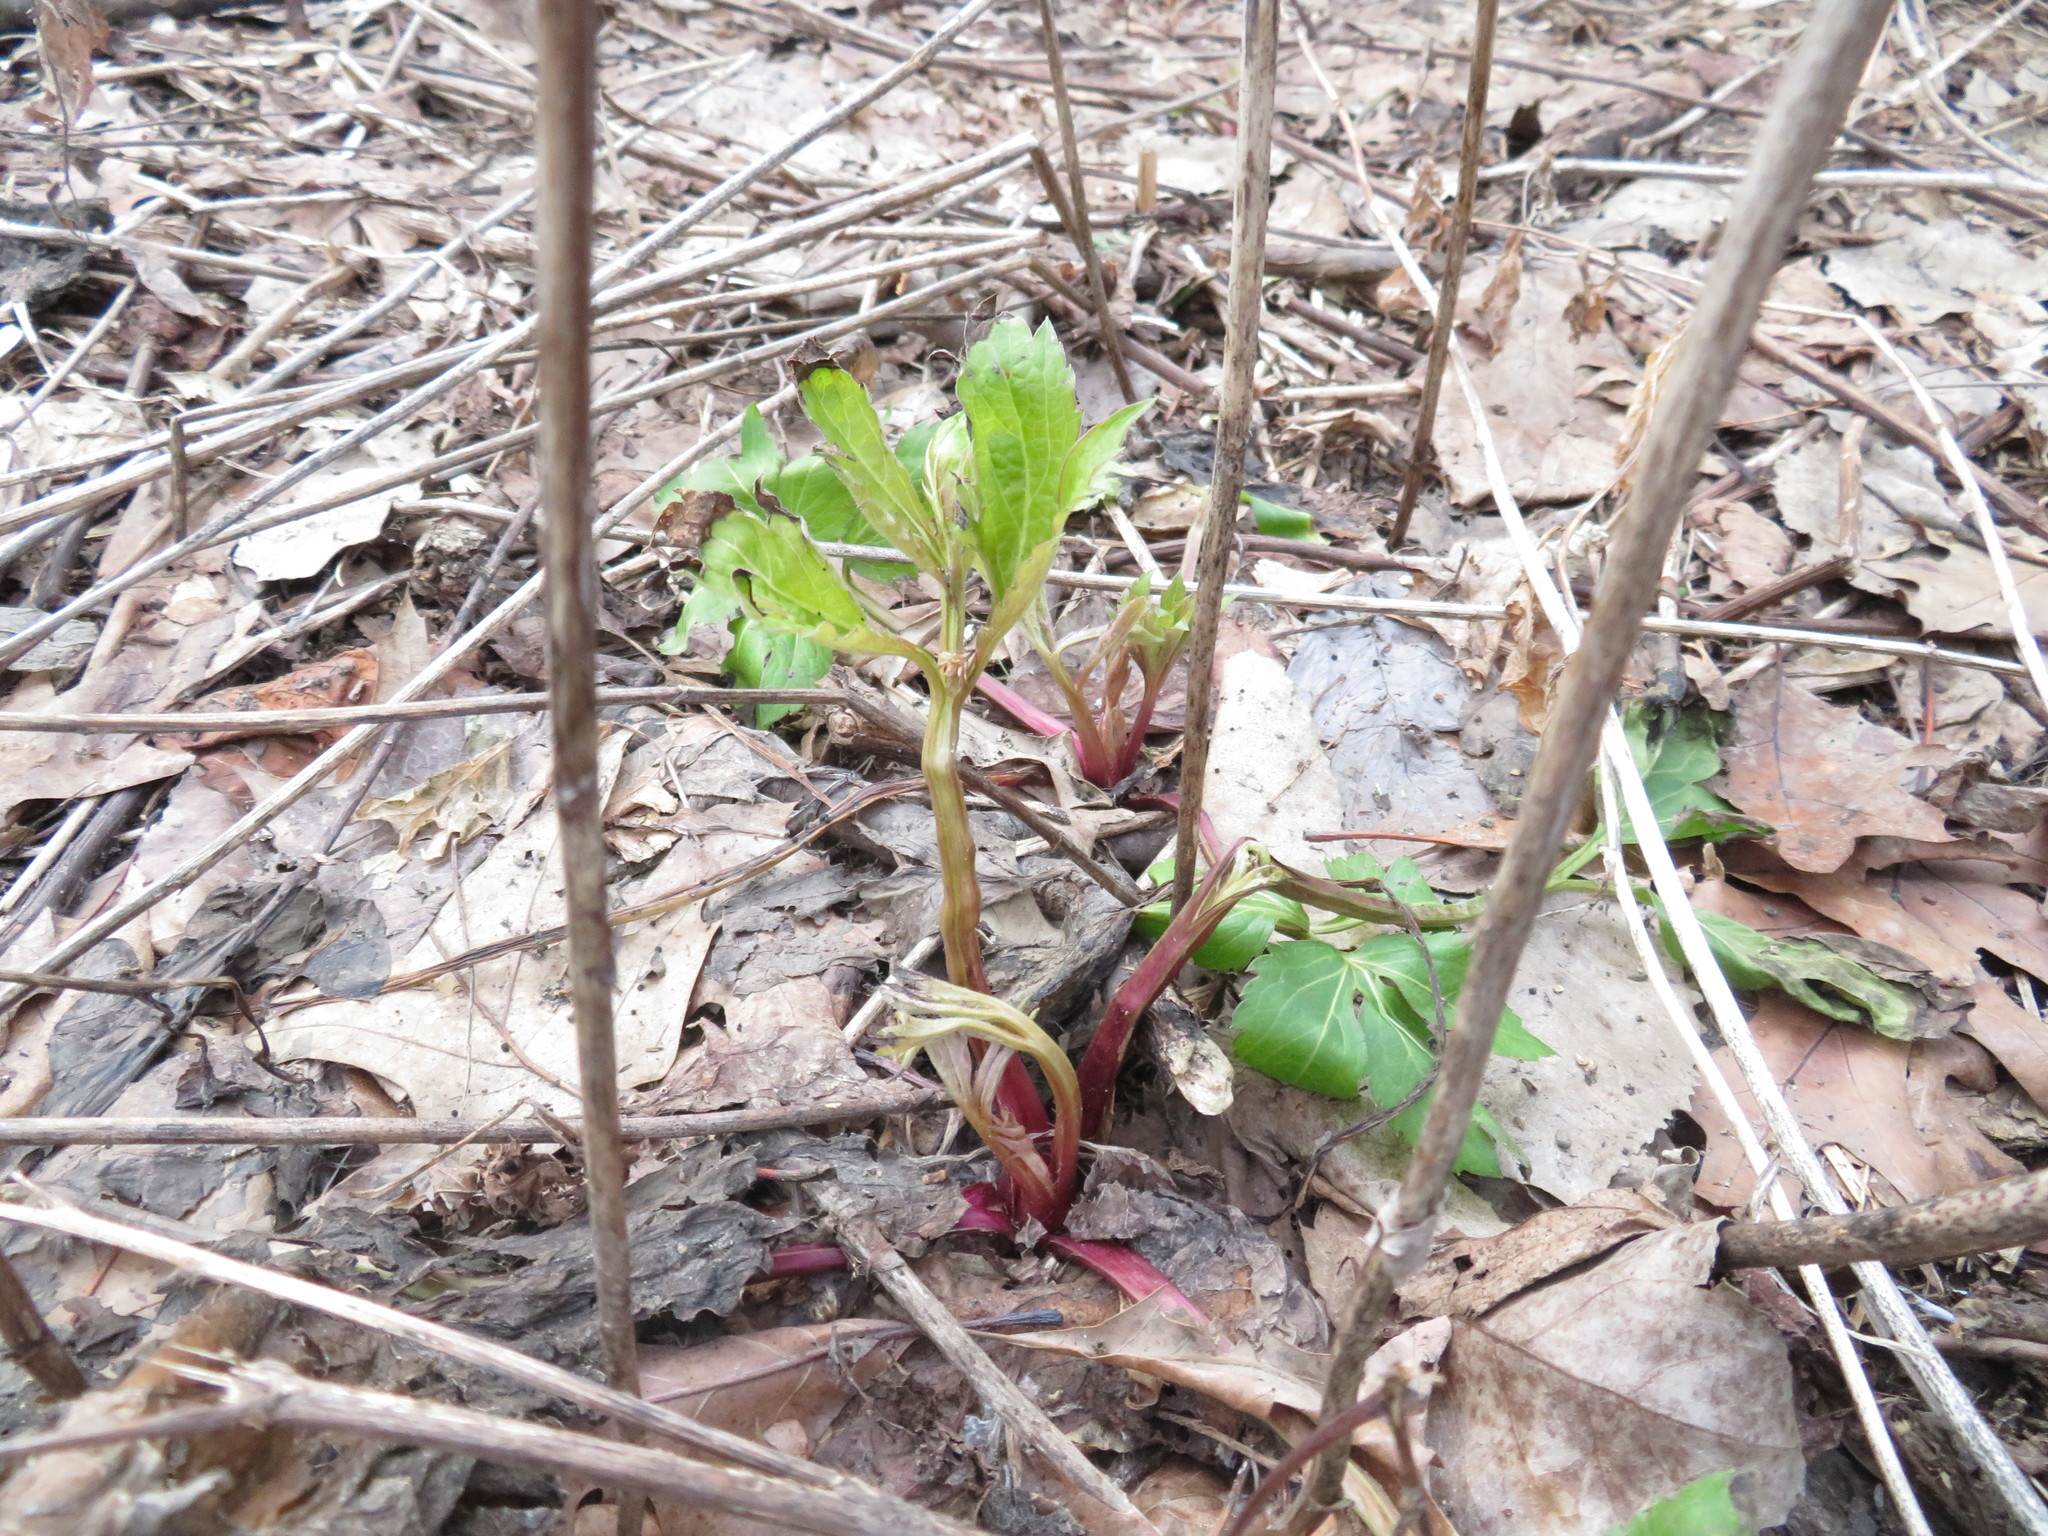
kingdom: Plantae
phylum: Tracheophyta
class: Magnoliopsida
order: Asterales
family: Asteraceae
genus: Rudbeckia
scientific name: Rudbeckia laciniata
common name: Coneflower
